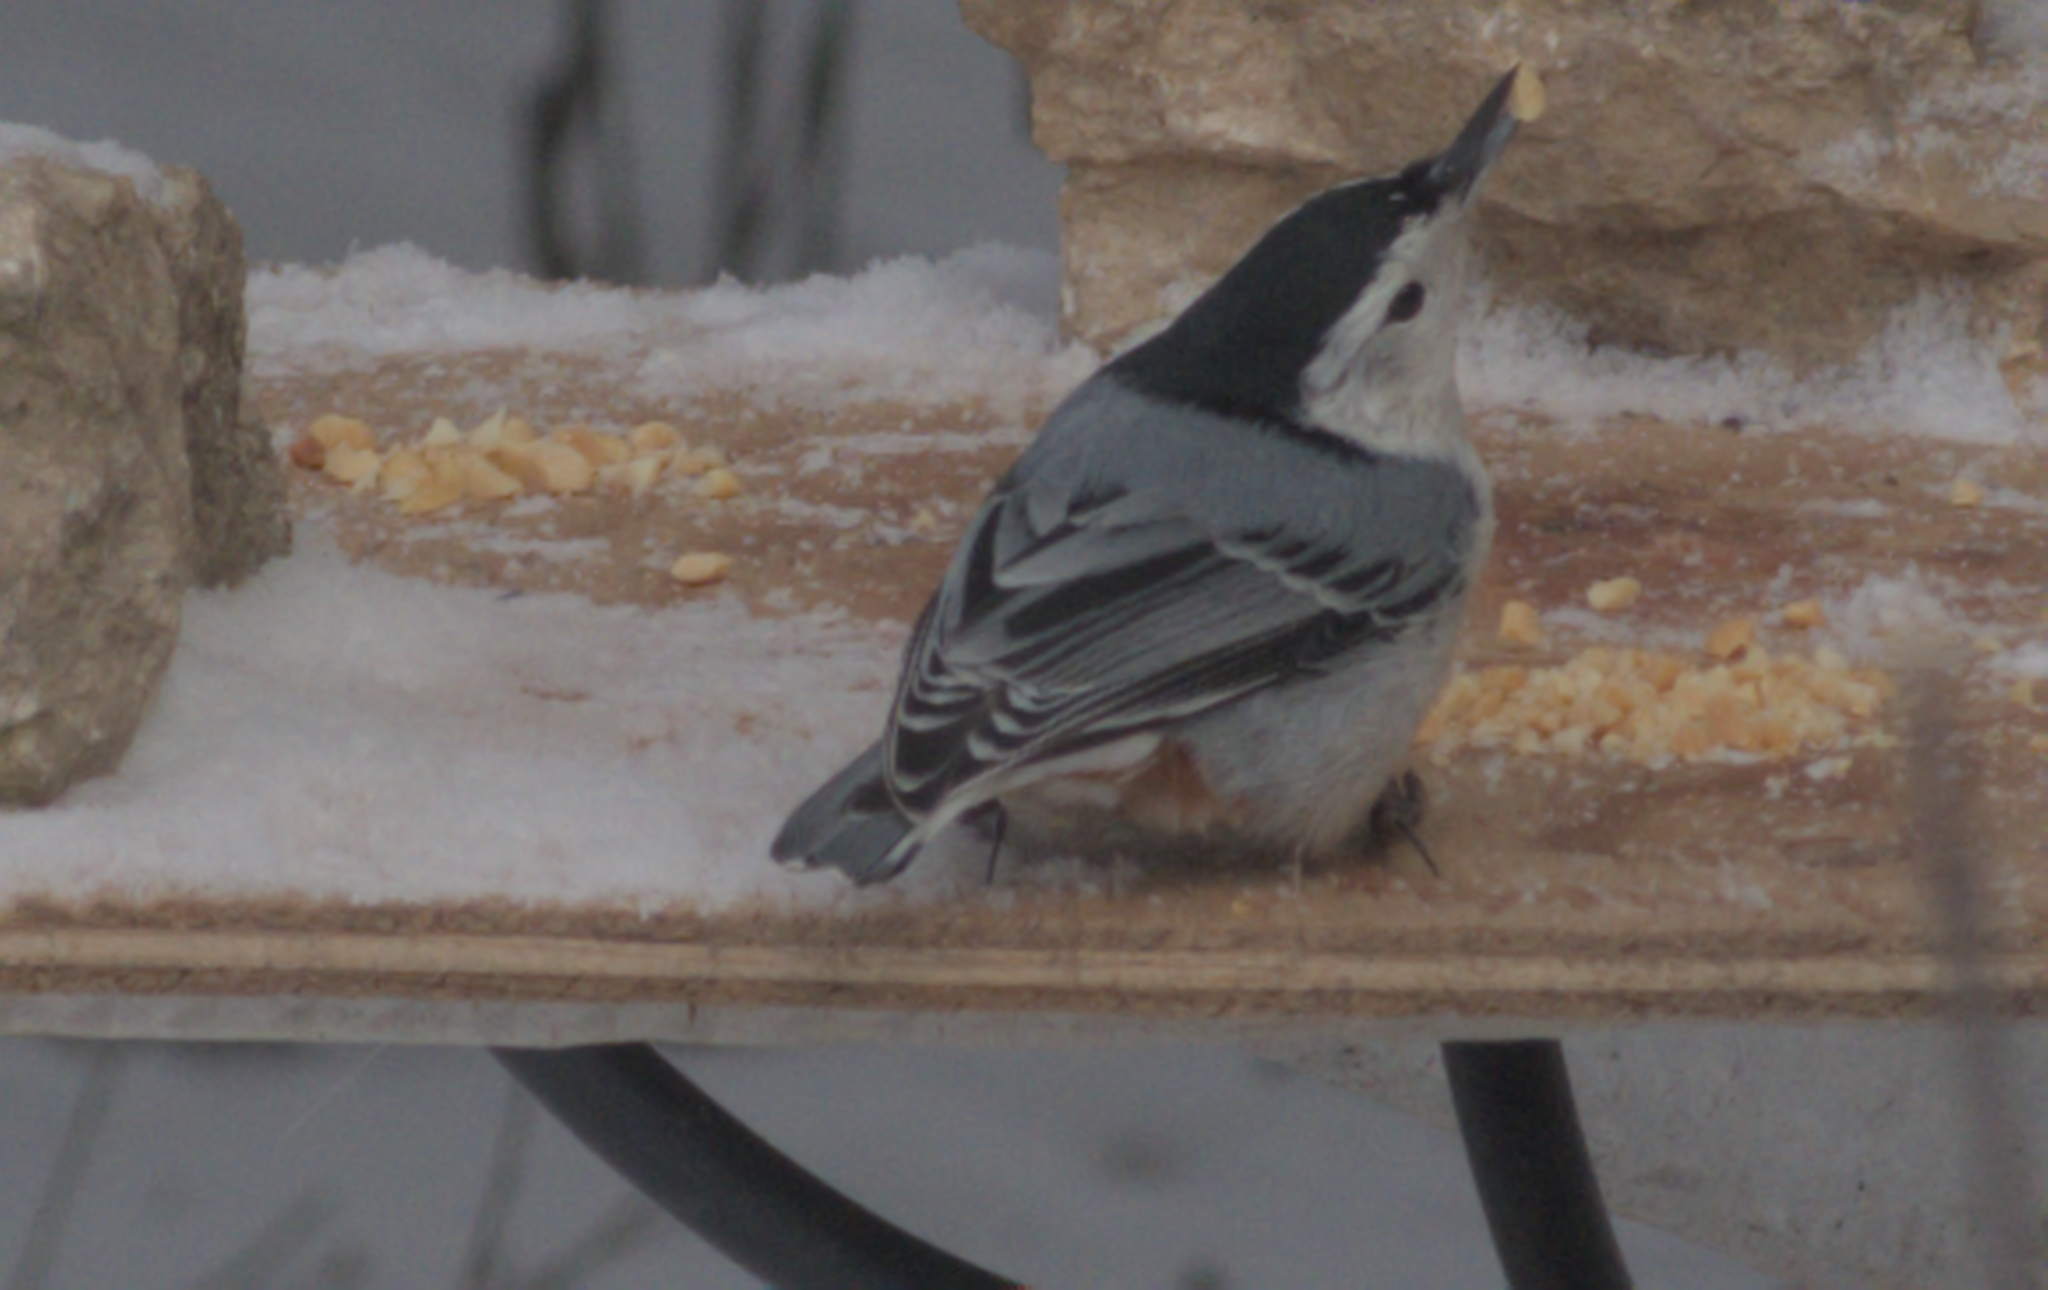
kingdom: Animalia
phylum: Chordata
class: Aves
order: Passeriformes
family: Sittidae
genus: Sitta
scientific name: Sitta carolinensis
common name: White-breasted nuthatch
